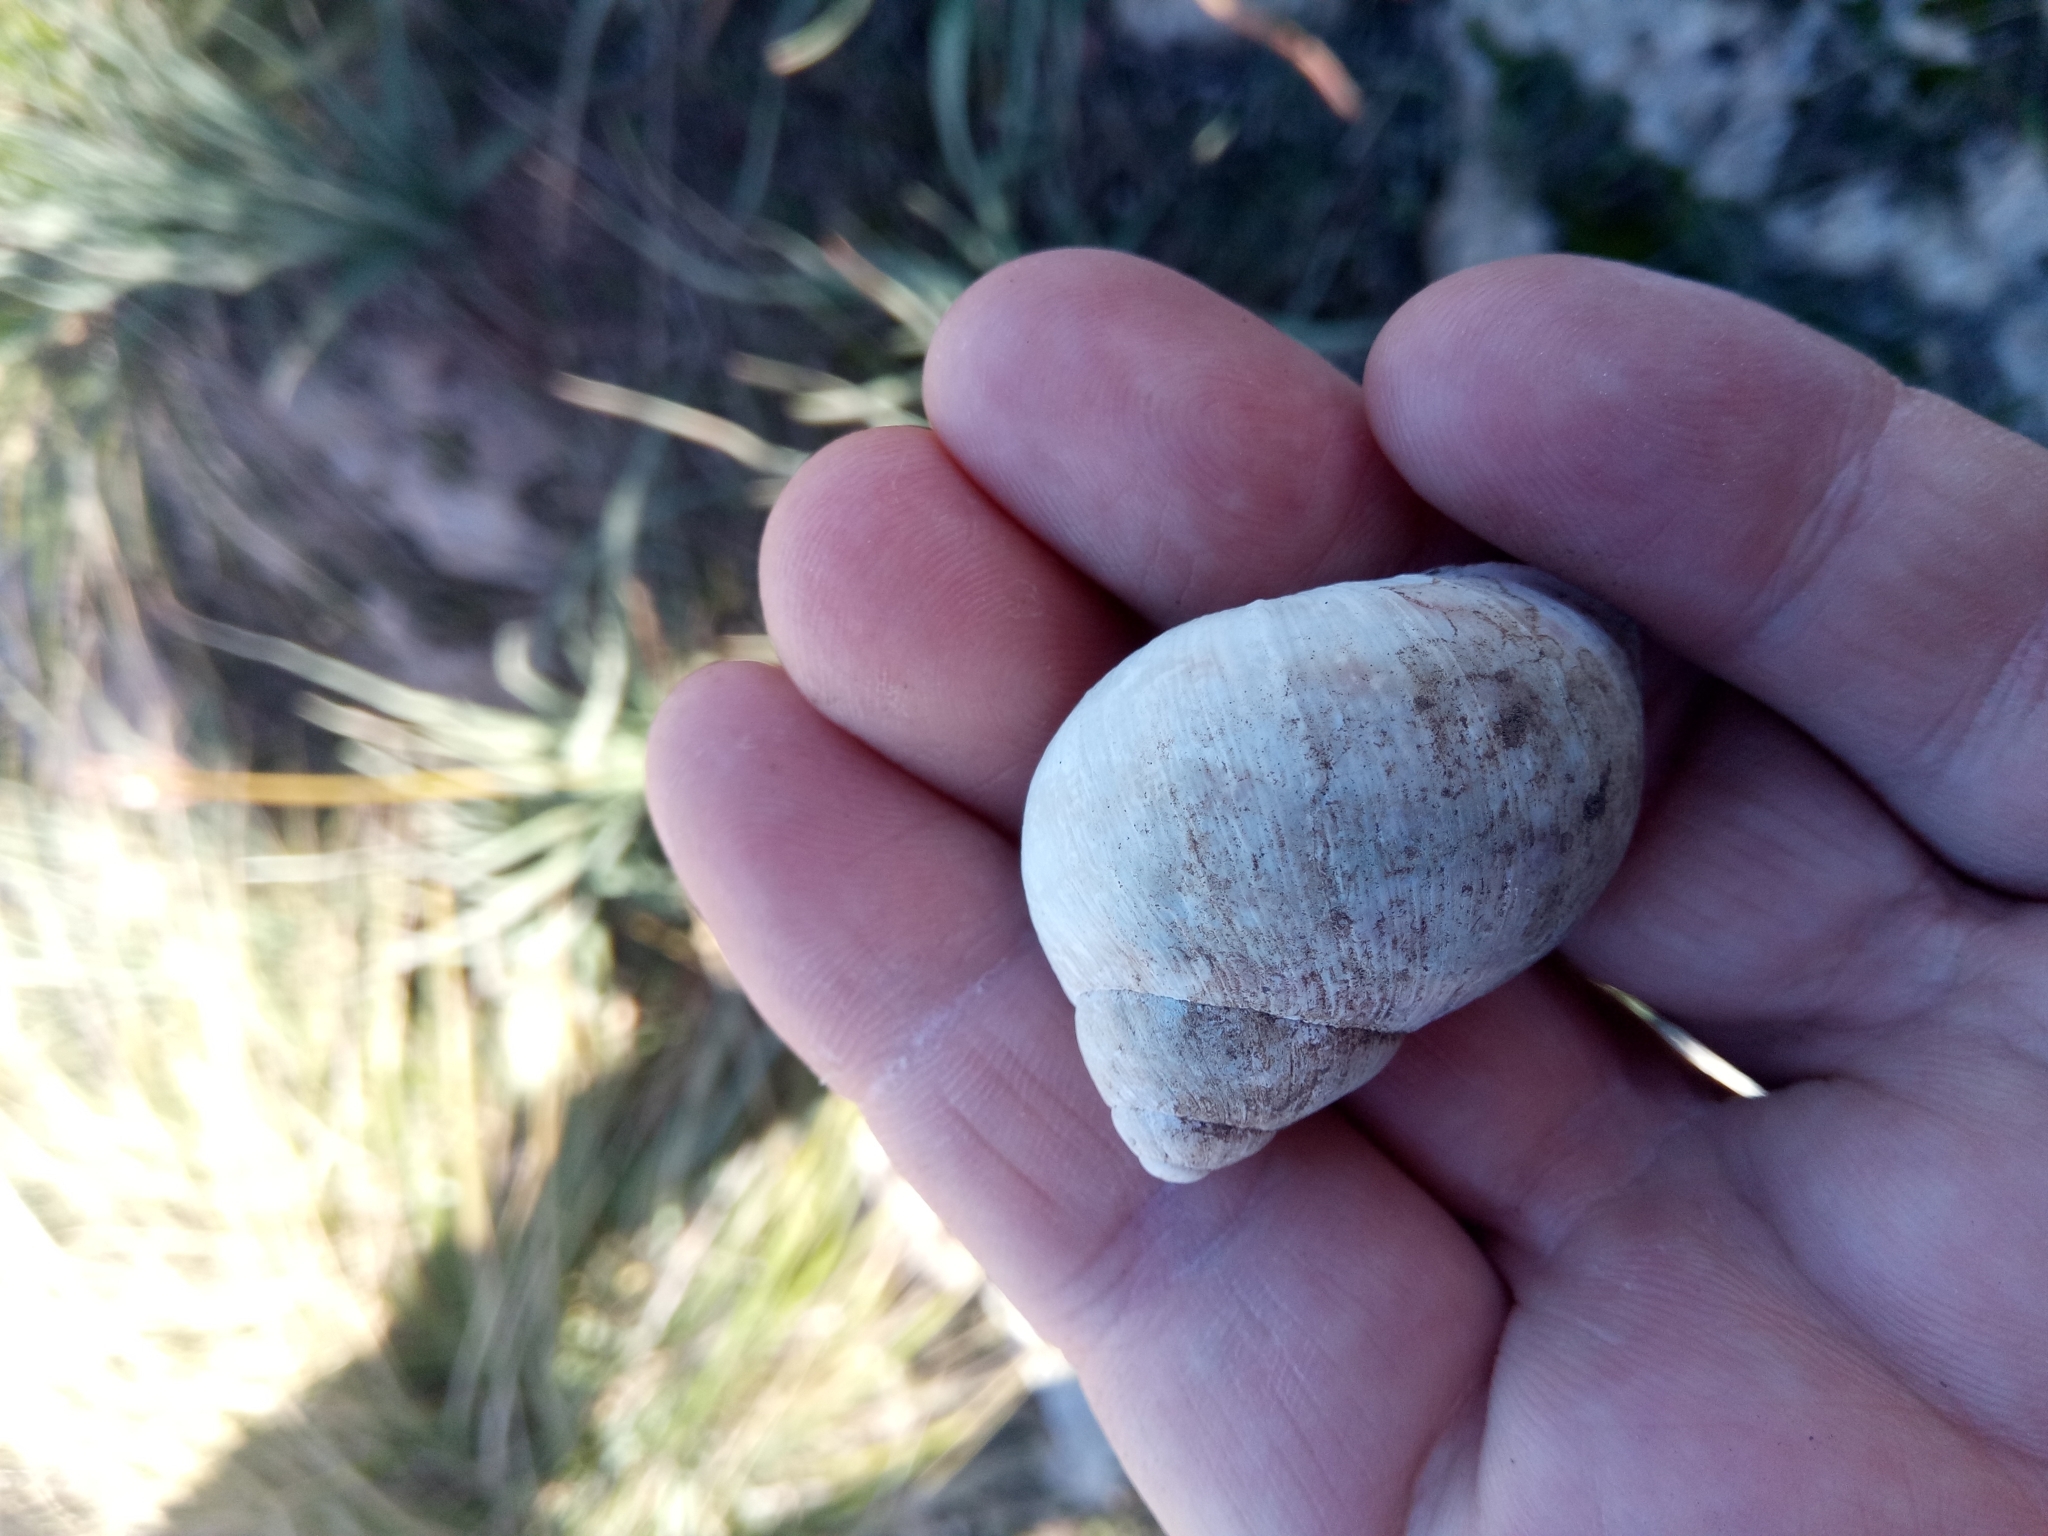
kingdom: Animalia
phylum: Mollusca
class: Gastropoda
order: Stylommatophora
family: Helicidae
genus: Cornu
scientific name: Cornu aspersum
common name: Brown garden snail
